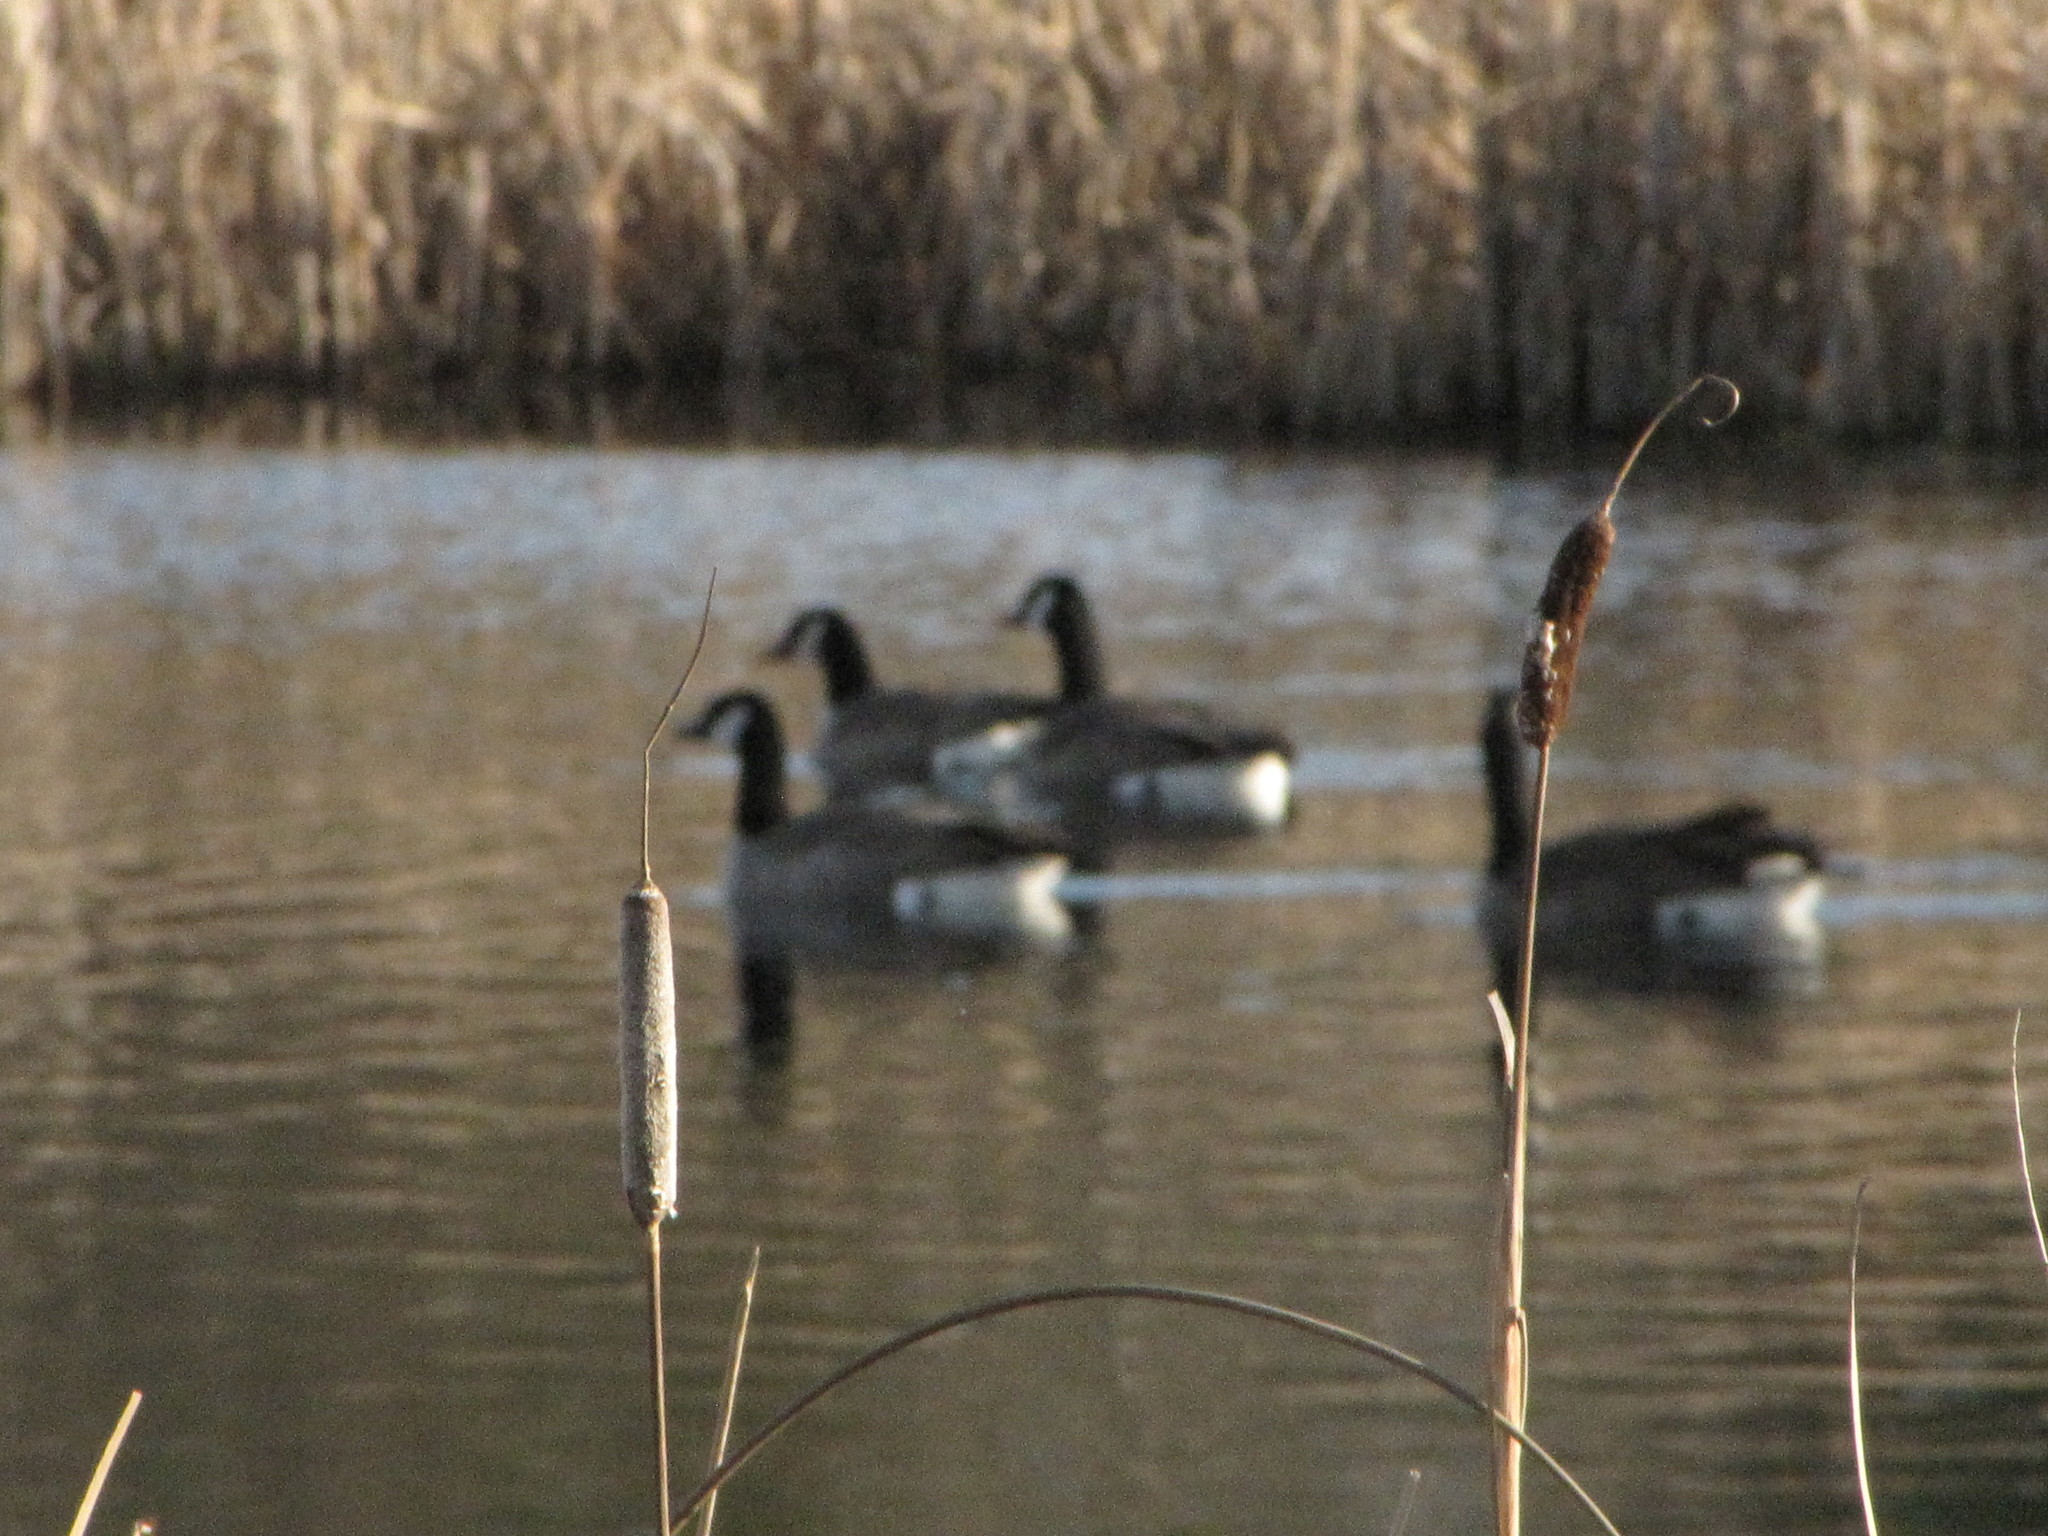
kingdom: Animalia
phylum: Chordata
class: Aves
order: Anseriformes
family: Anatidae
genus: Branta
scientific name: Branta canadensis
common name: Canada goose
